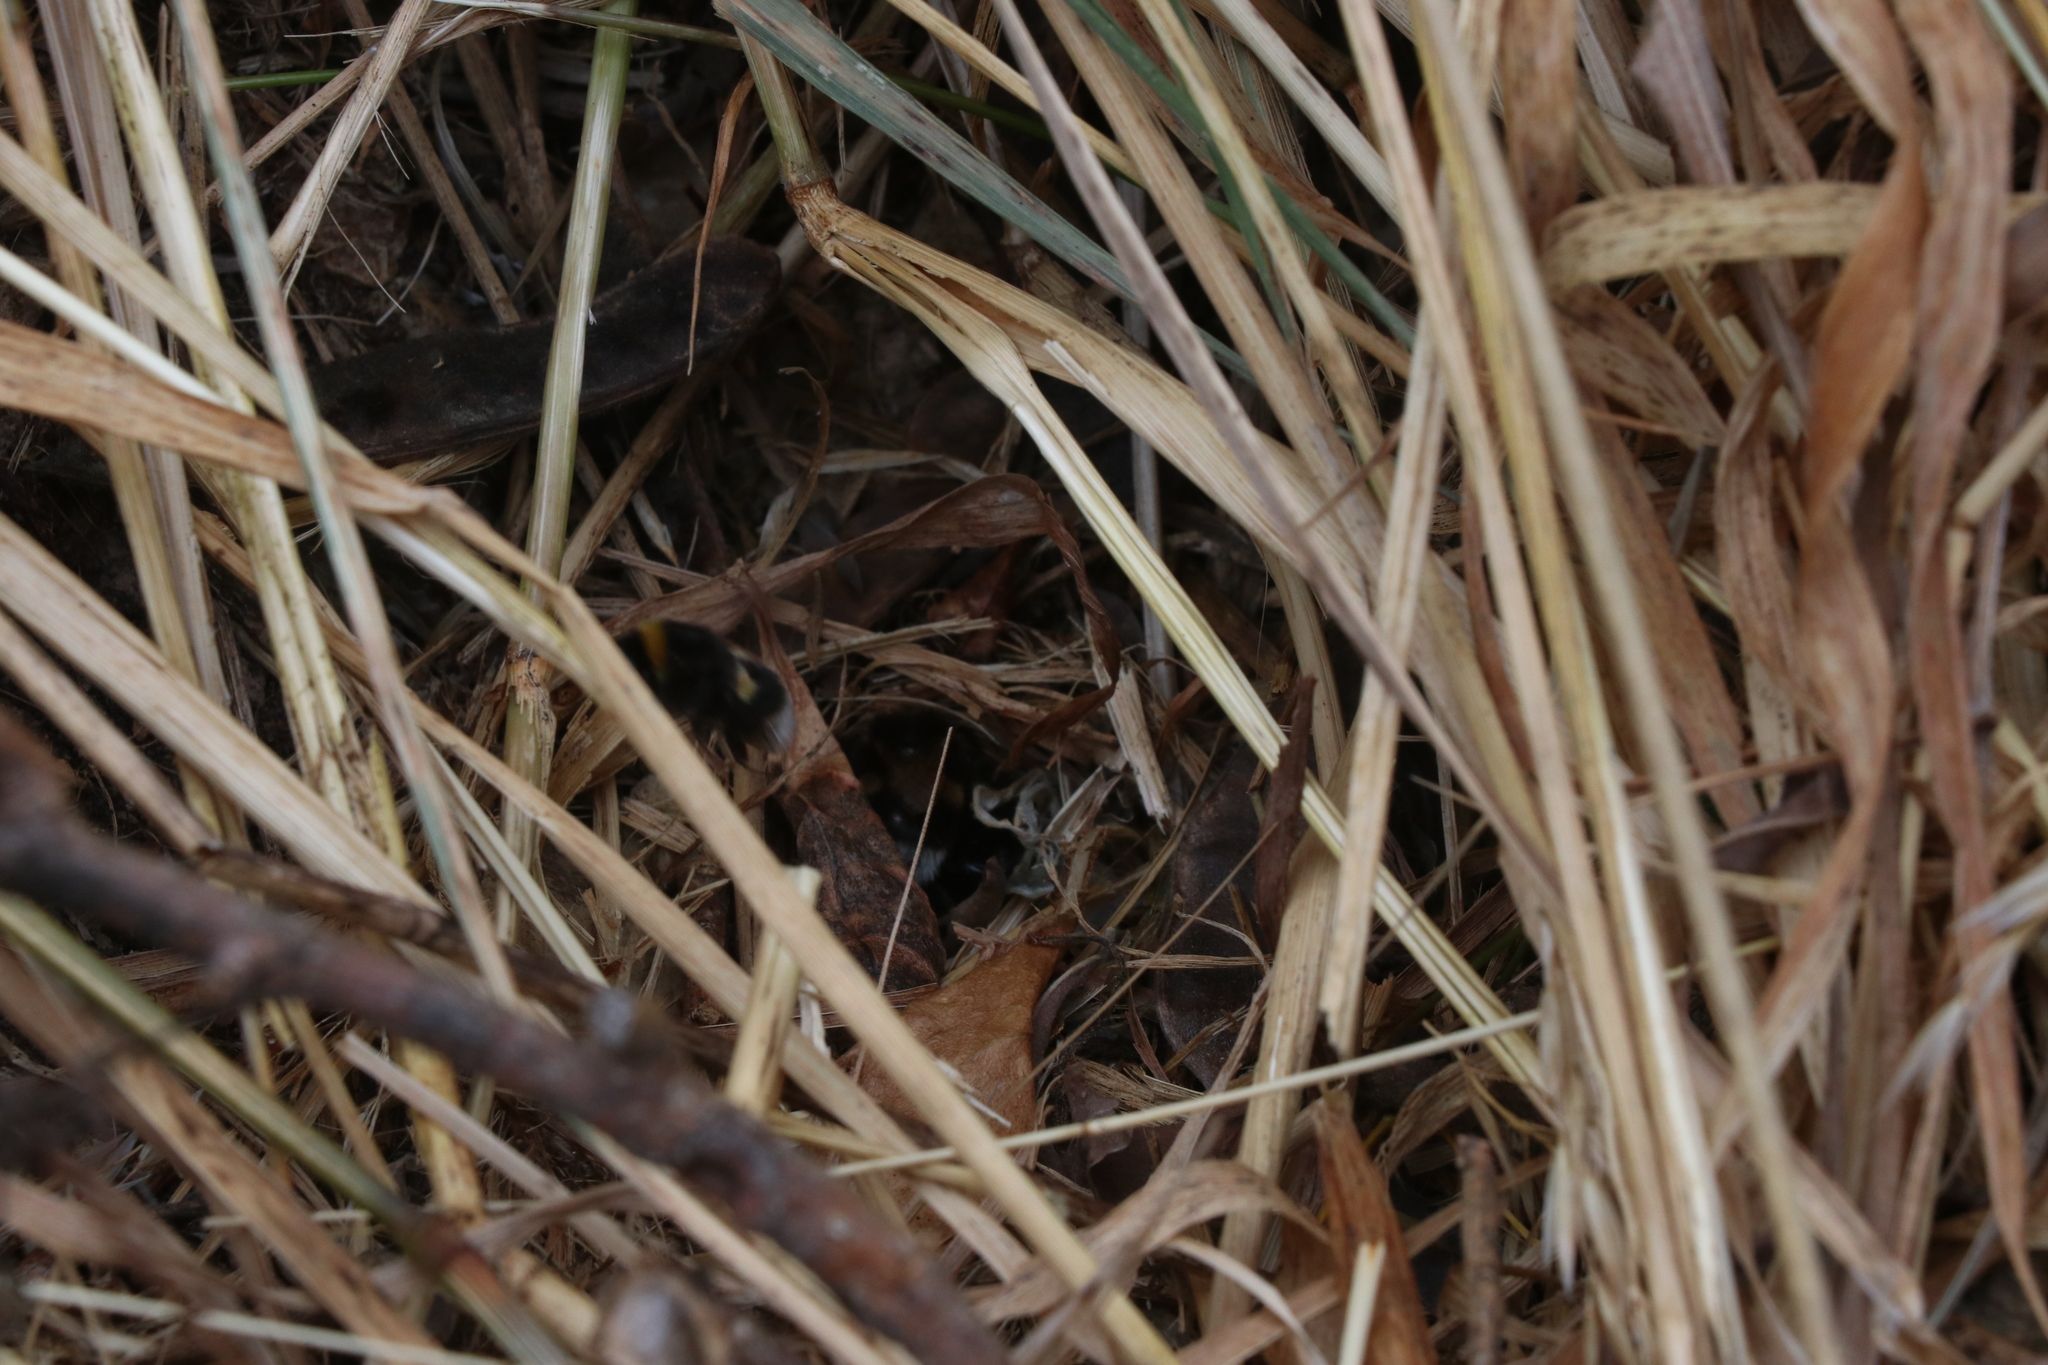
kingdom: Animalia
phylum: Arthropoda
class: Insecta
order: Hymenoptera
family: Apidae
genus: Bombus
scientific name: Bombus terrestris
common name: Buff-tailed bumblebee
